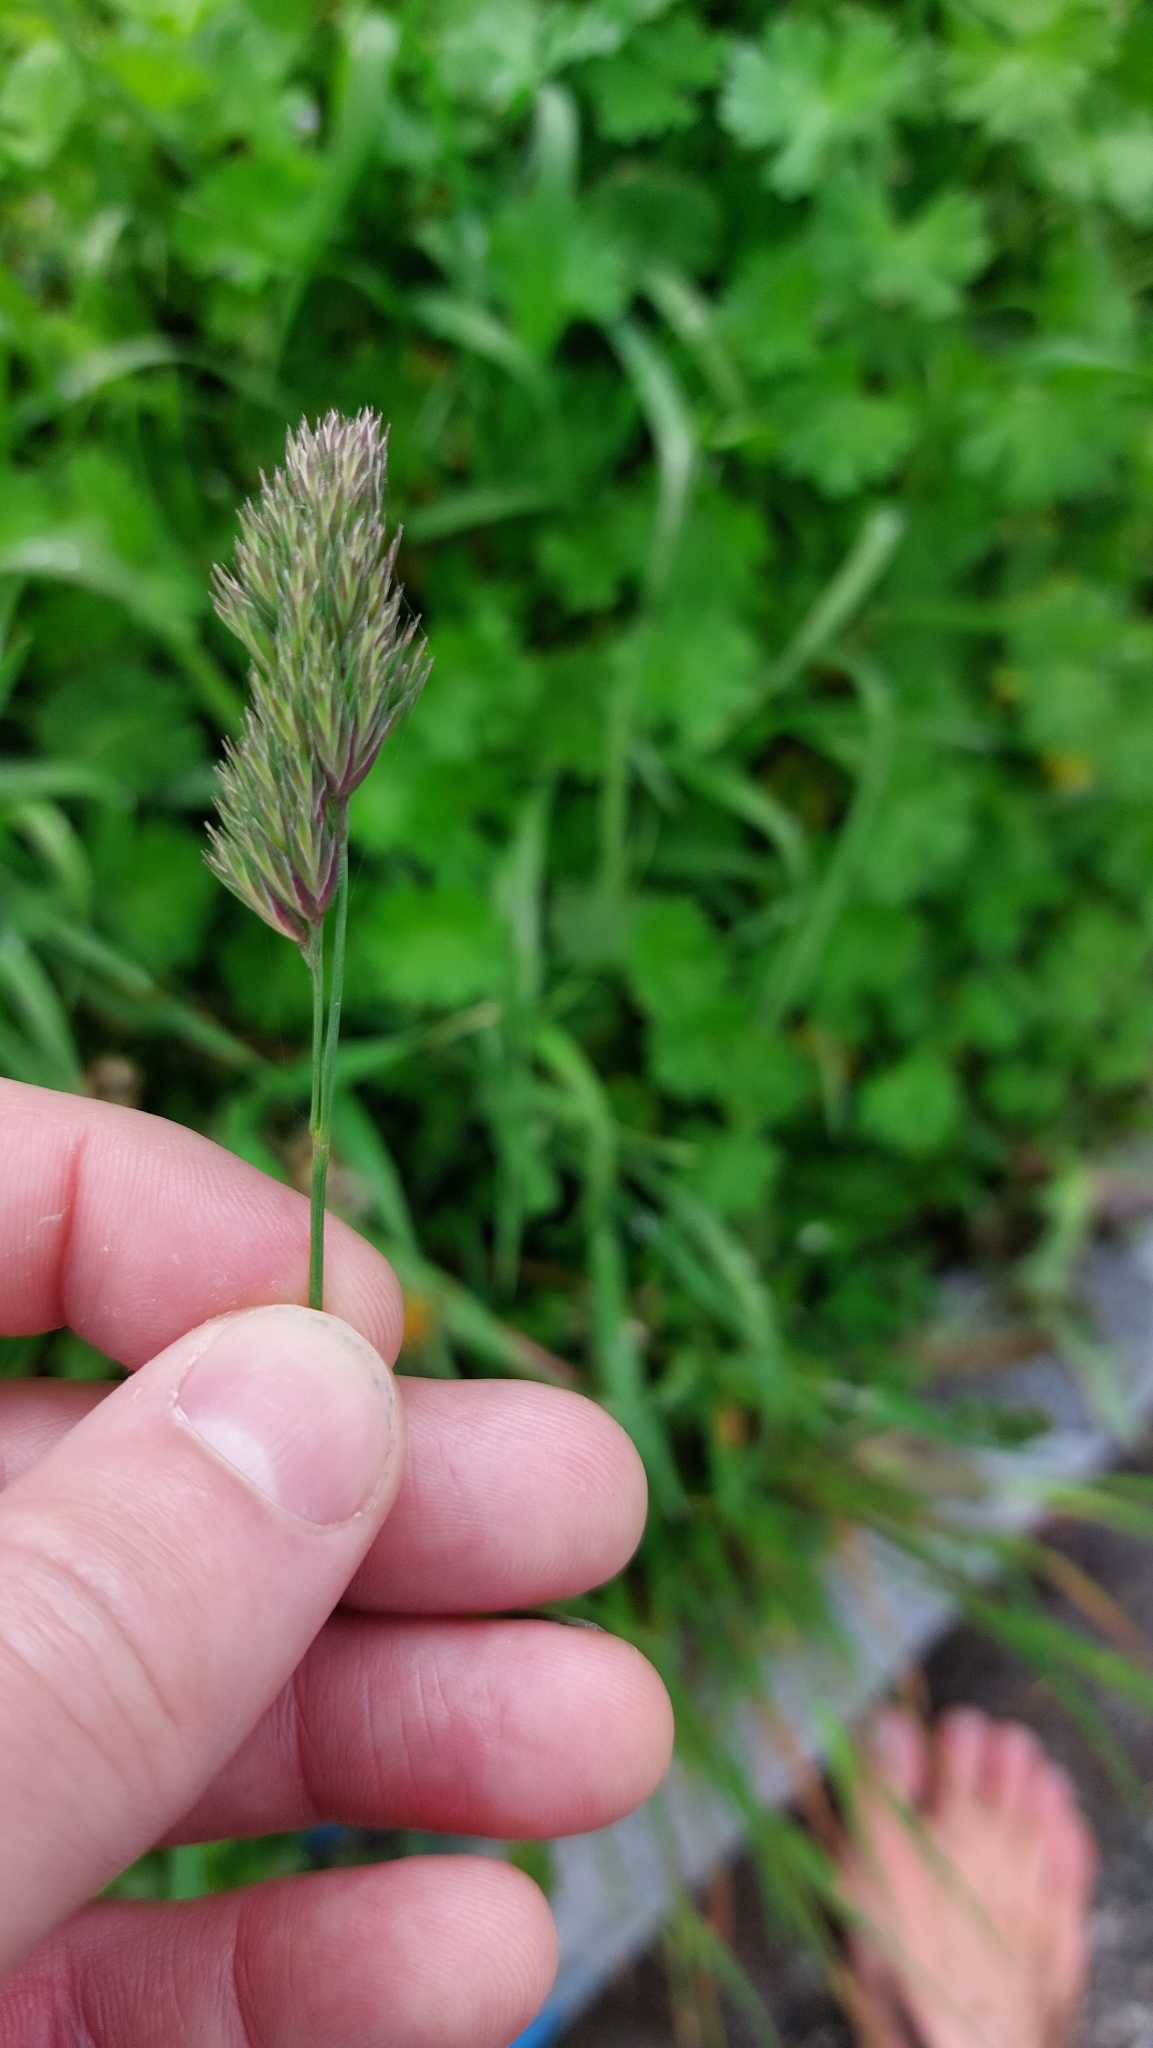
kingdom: Plantae
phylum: Tracheophyta
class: Liliopsida
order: Poales
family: Poaceae
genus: Dactylis
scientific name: Dactylis glomerata
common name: Orchardgrass
